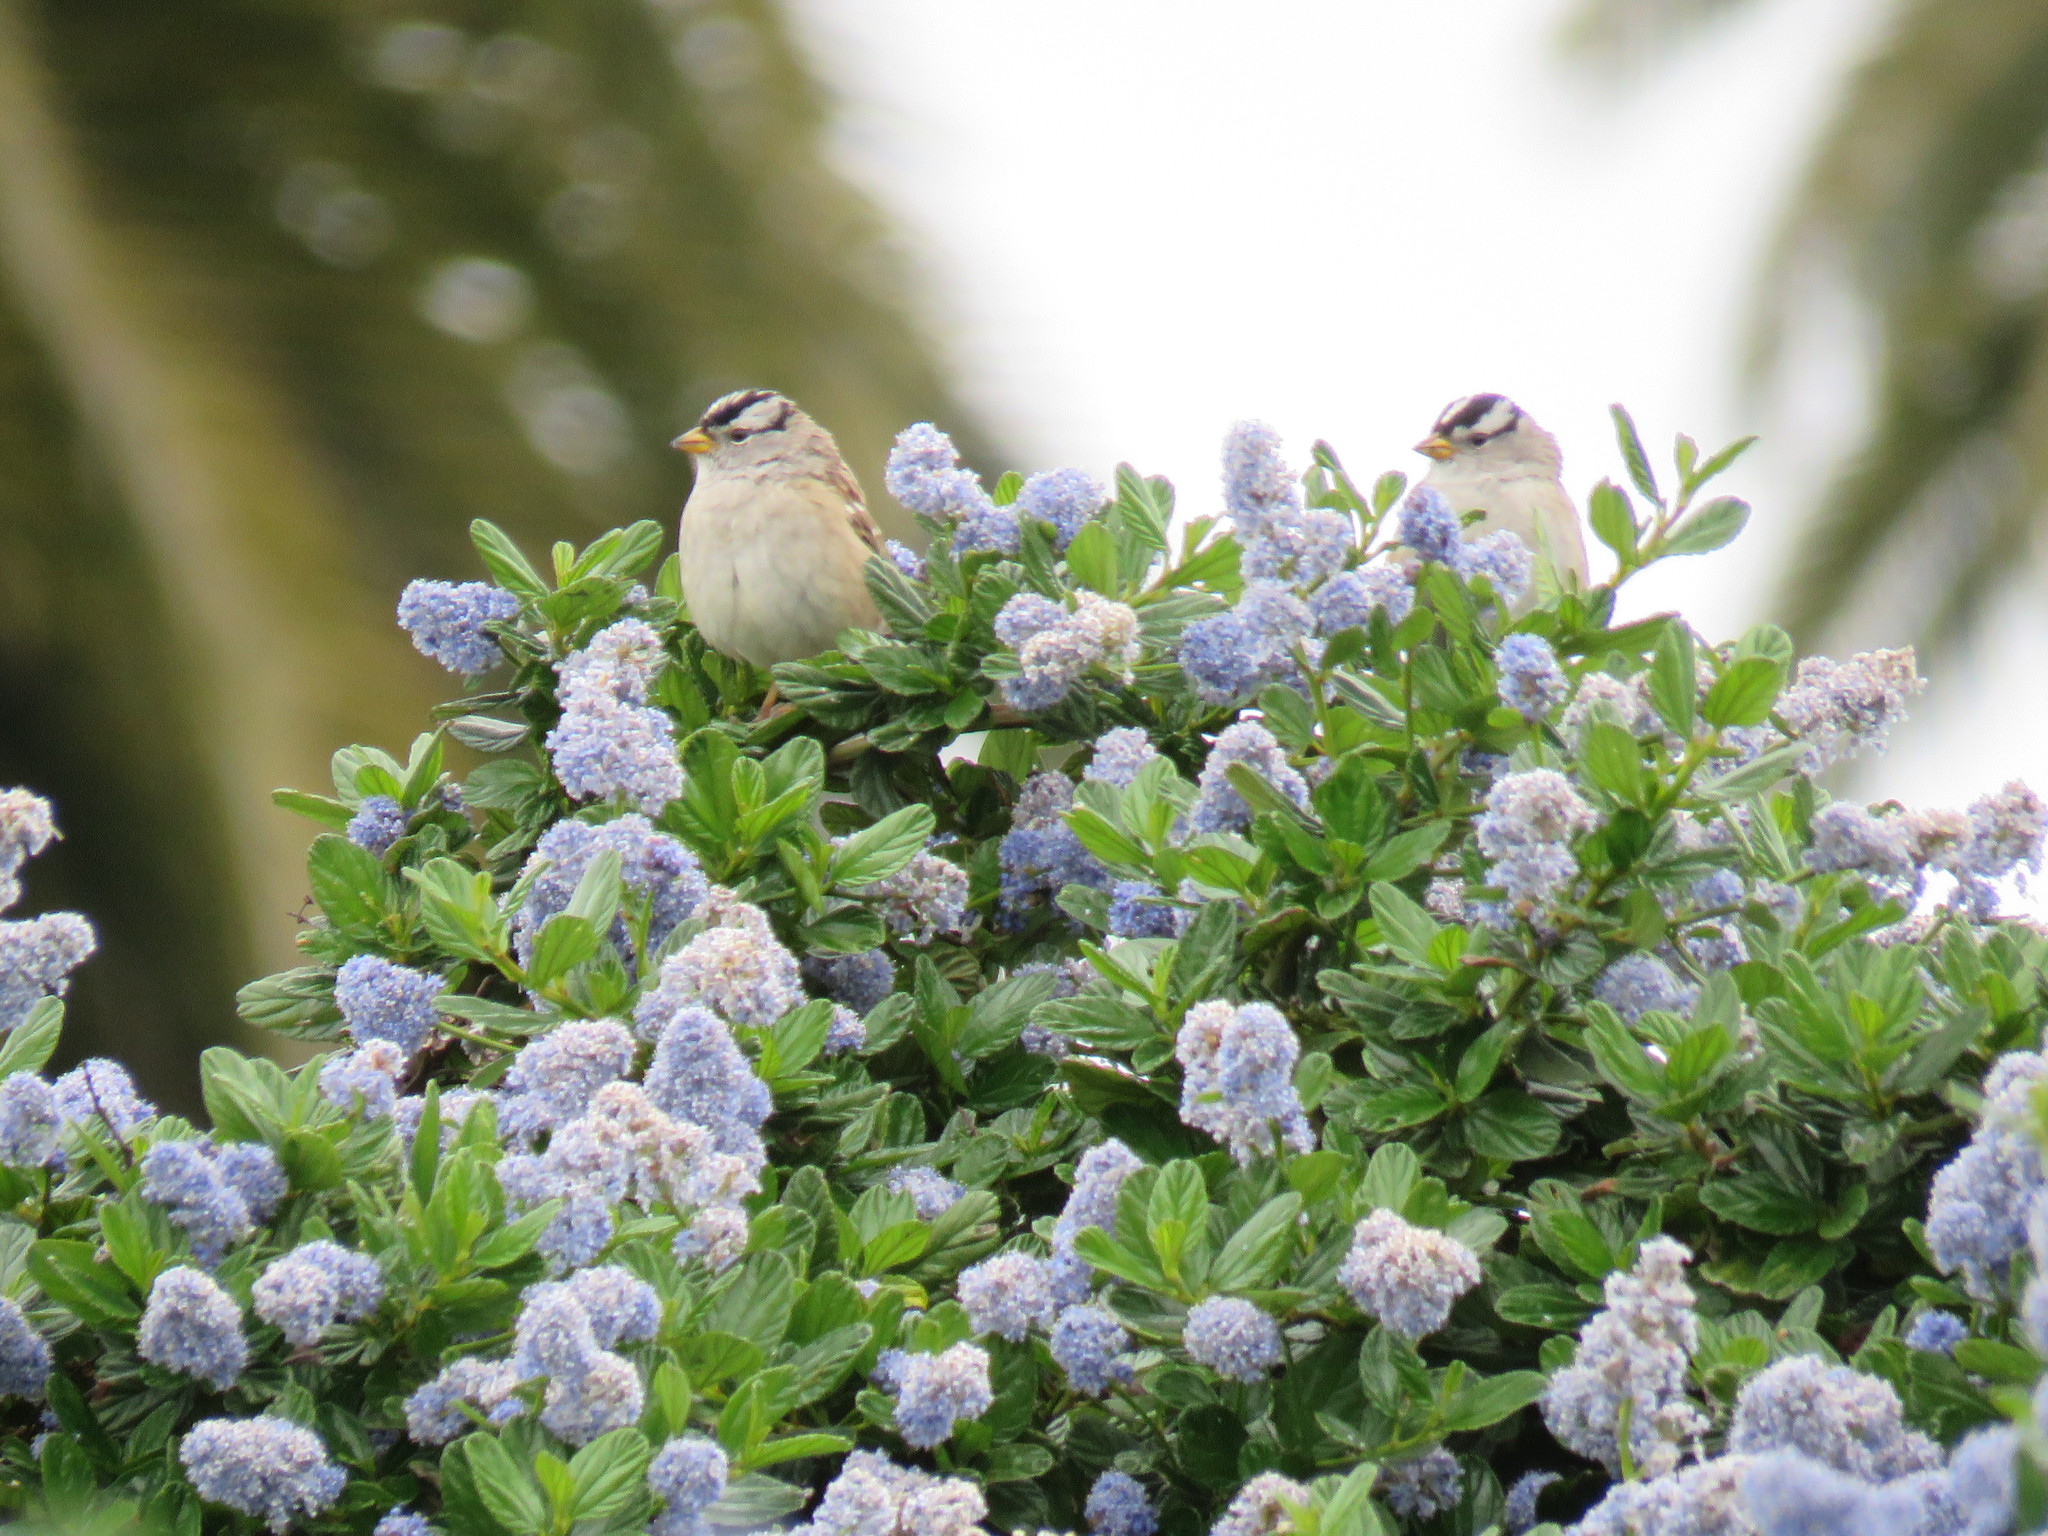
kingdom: Animalia
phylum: Chordata
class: Aves
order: Passeriformes
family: Passerellidae
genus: Zonotrichia
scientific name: Zonotrichia leucophrys
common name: White-crowned sparrow
